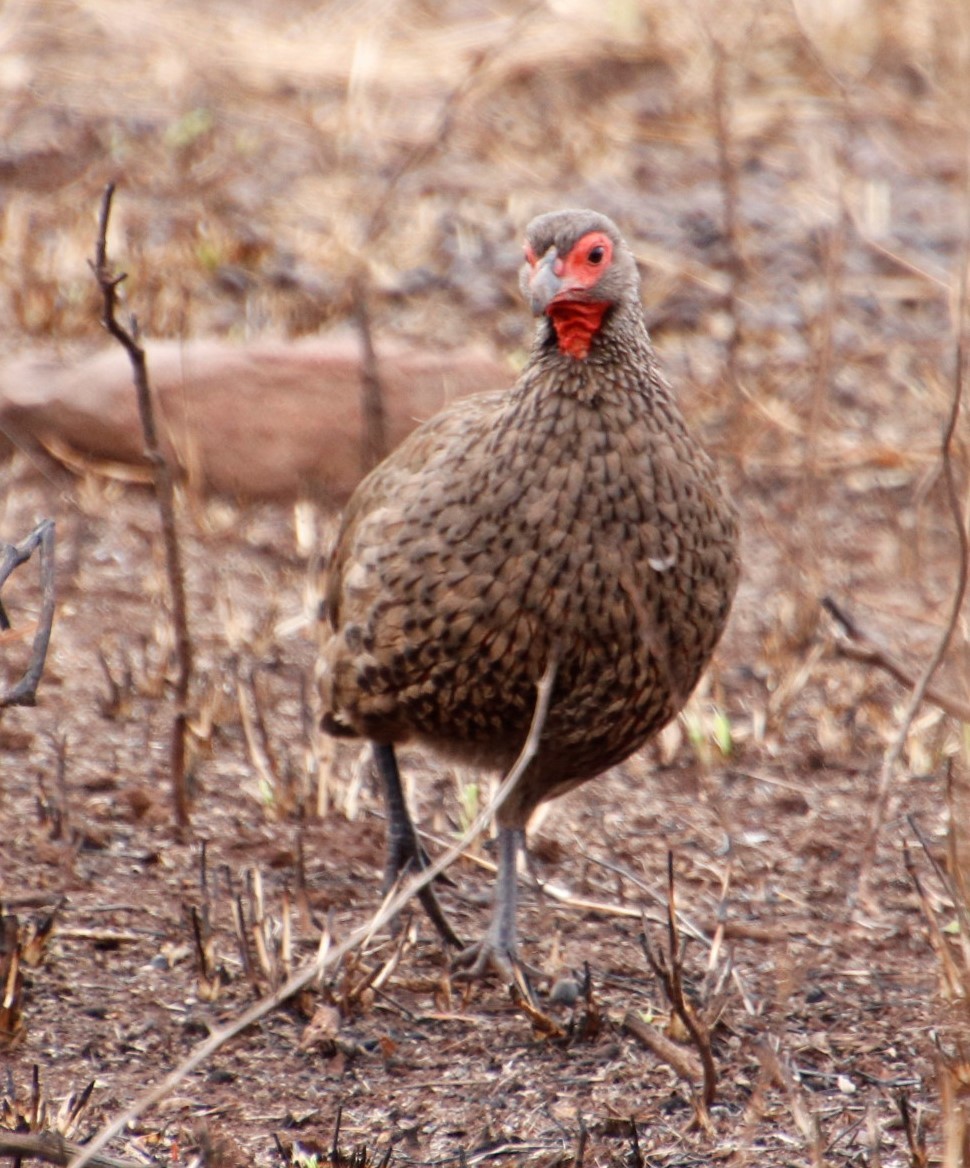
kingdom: Animalia
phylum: Chordata
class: Aves
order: Galliformes
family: Phasianidae
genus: Pternistis
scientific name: Pternistis swainsonii
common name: Swainson's spurfowl
